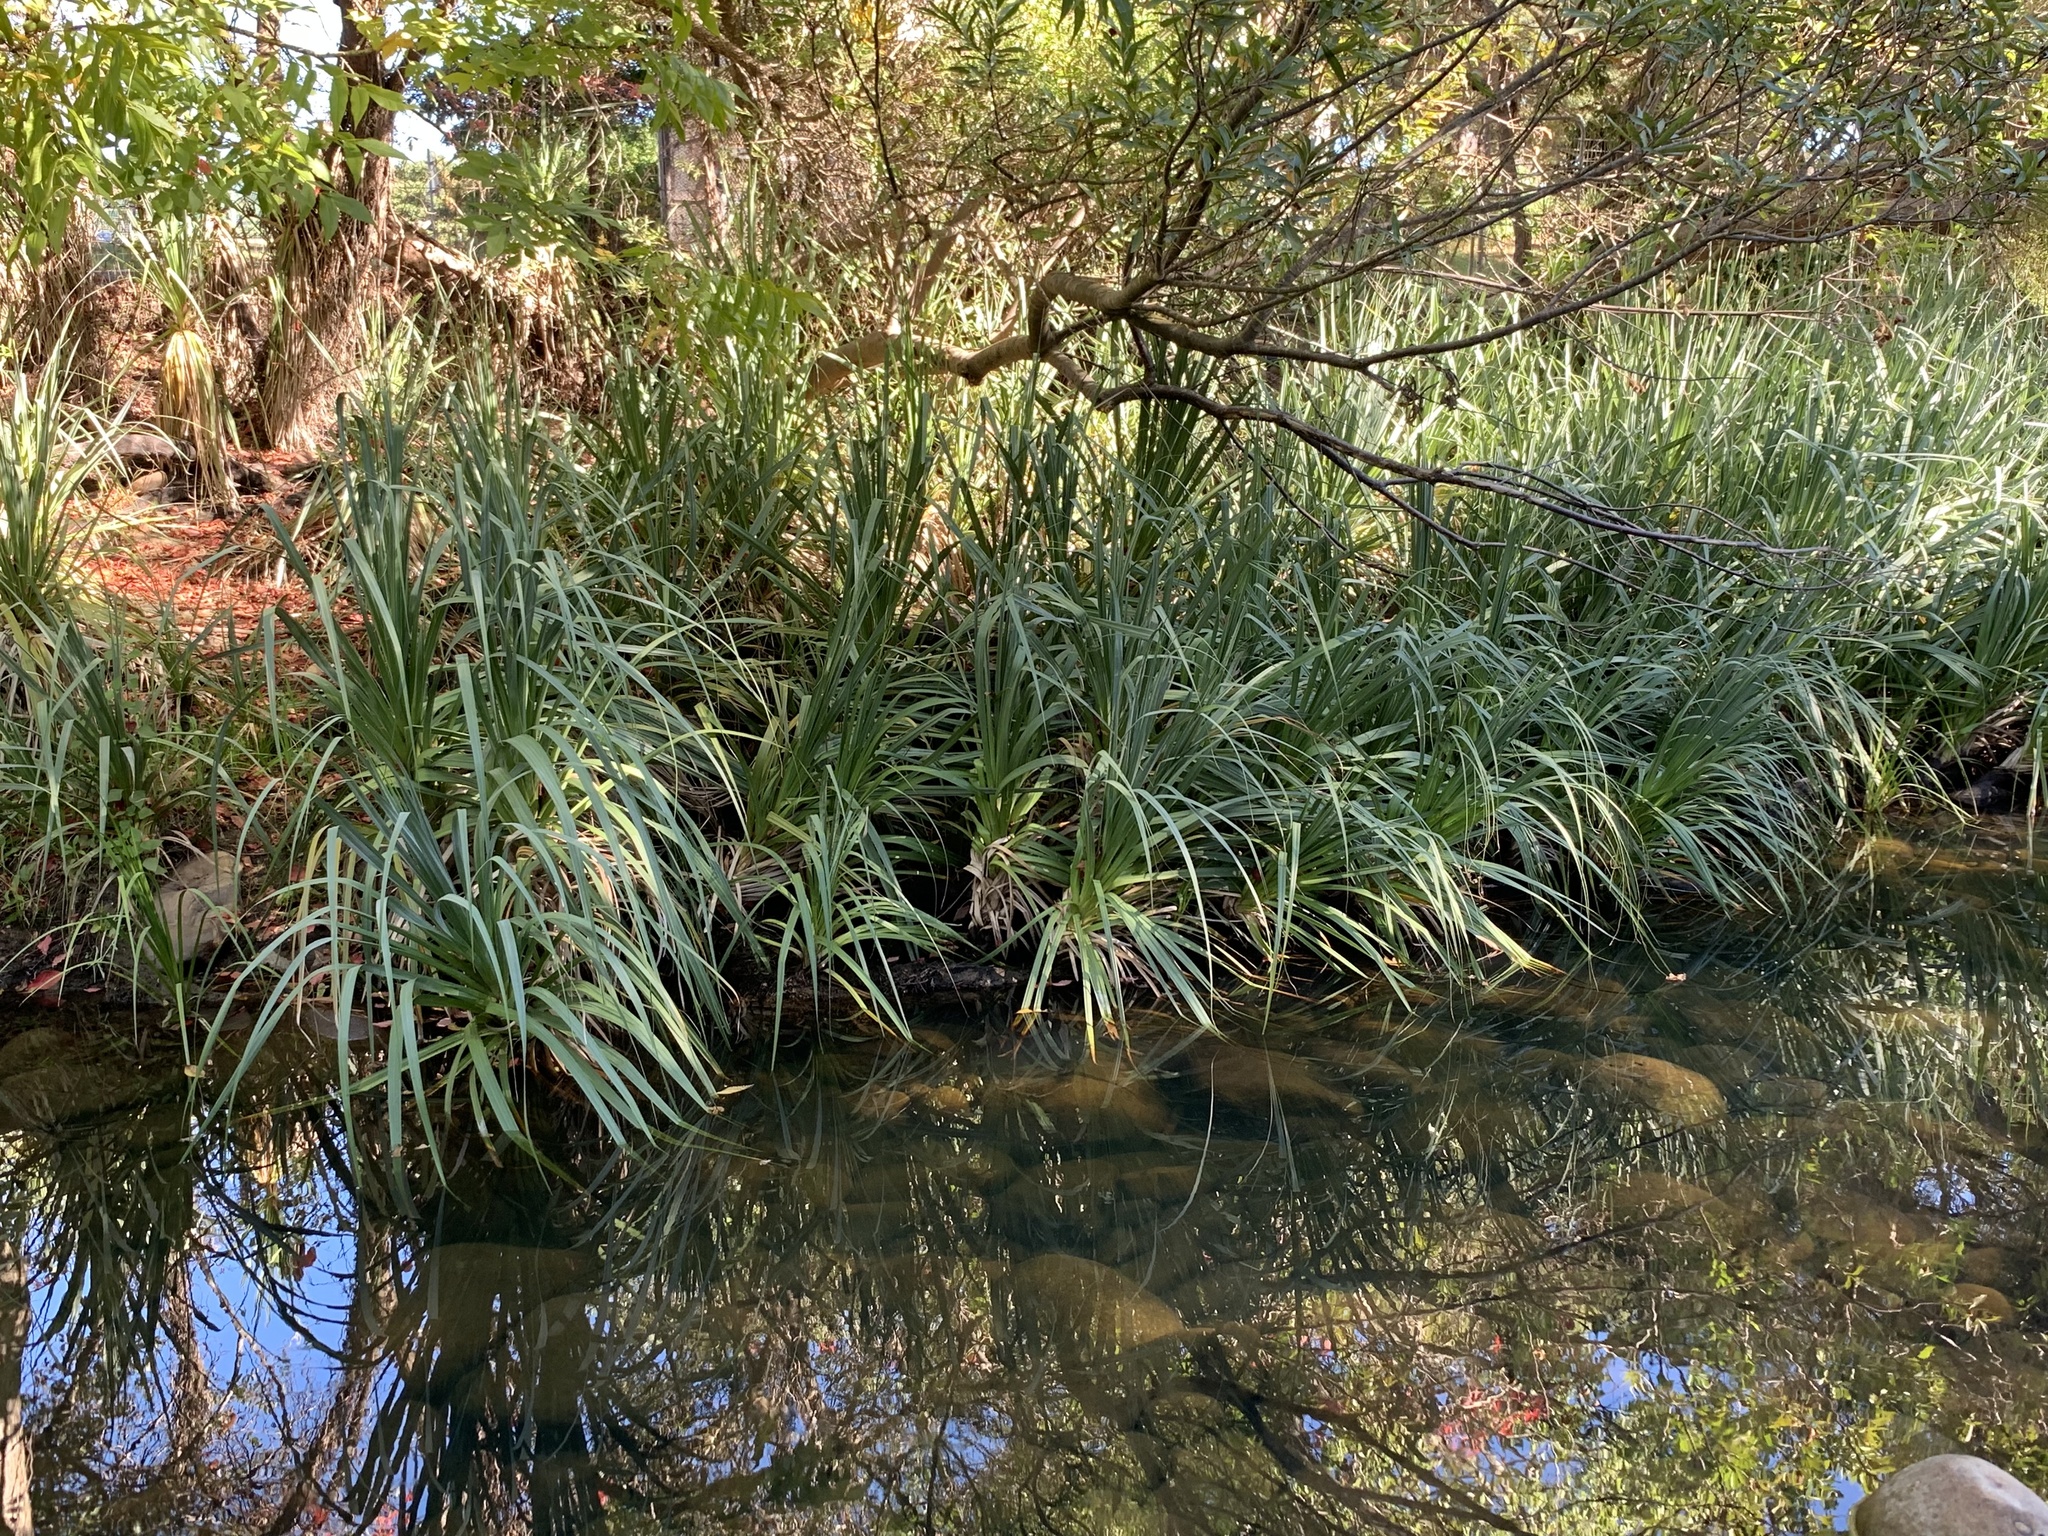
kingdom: Plantae
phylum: Tracheophyta
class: Liliopsida
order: Poales
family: Thurniaceae
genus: Prionium
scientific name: Prionium serratum
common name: Palmiet
